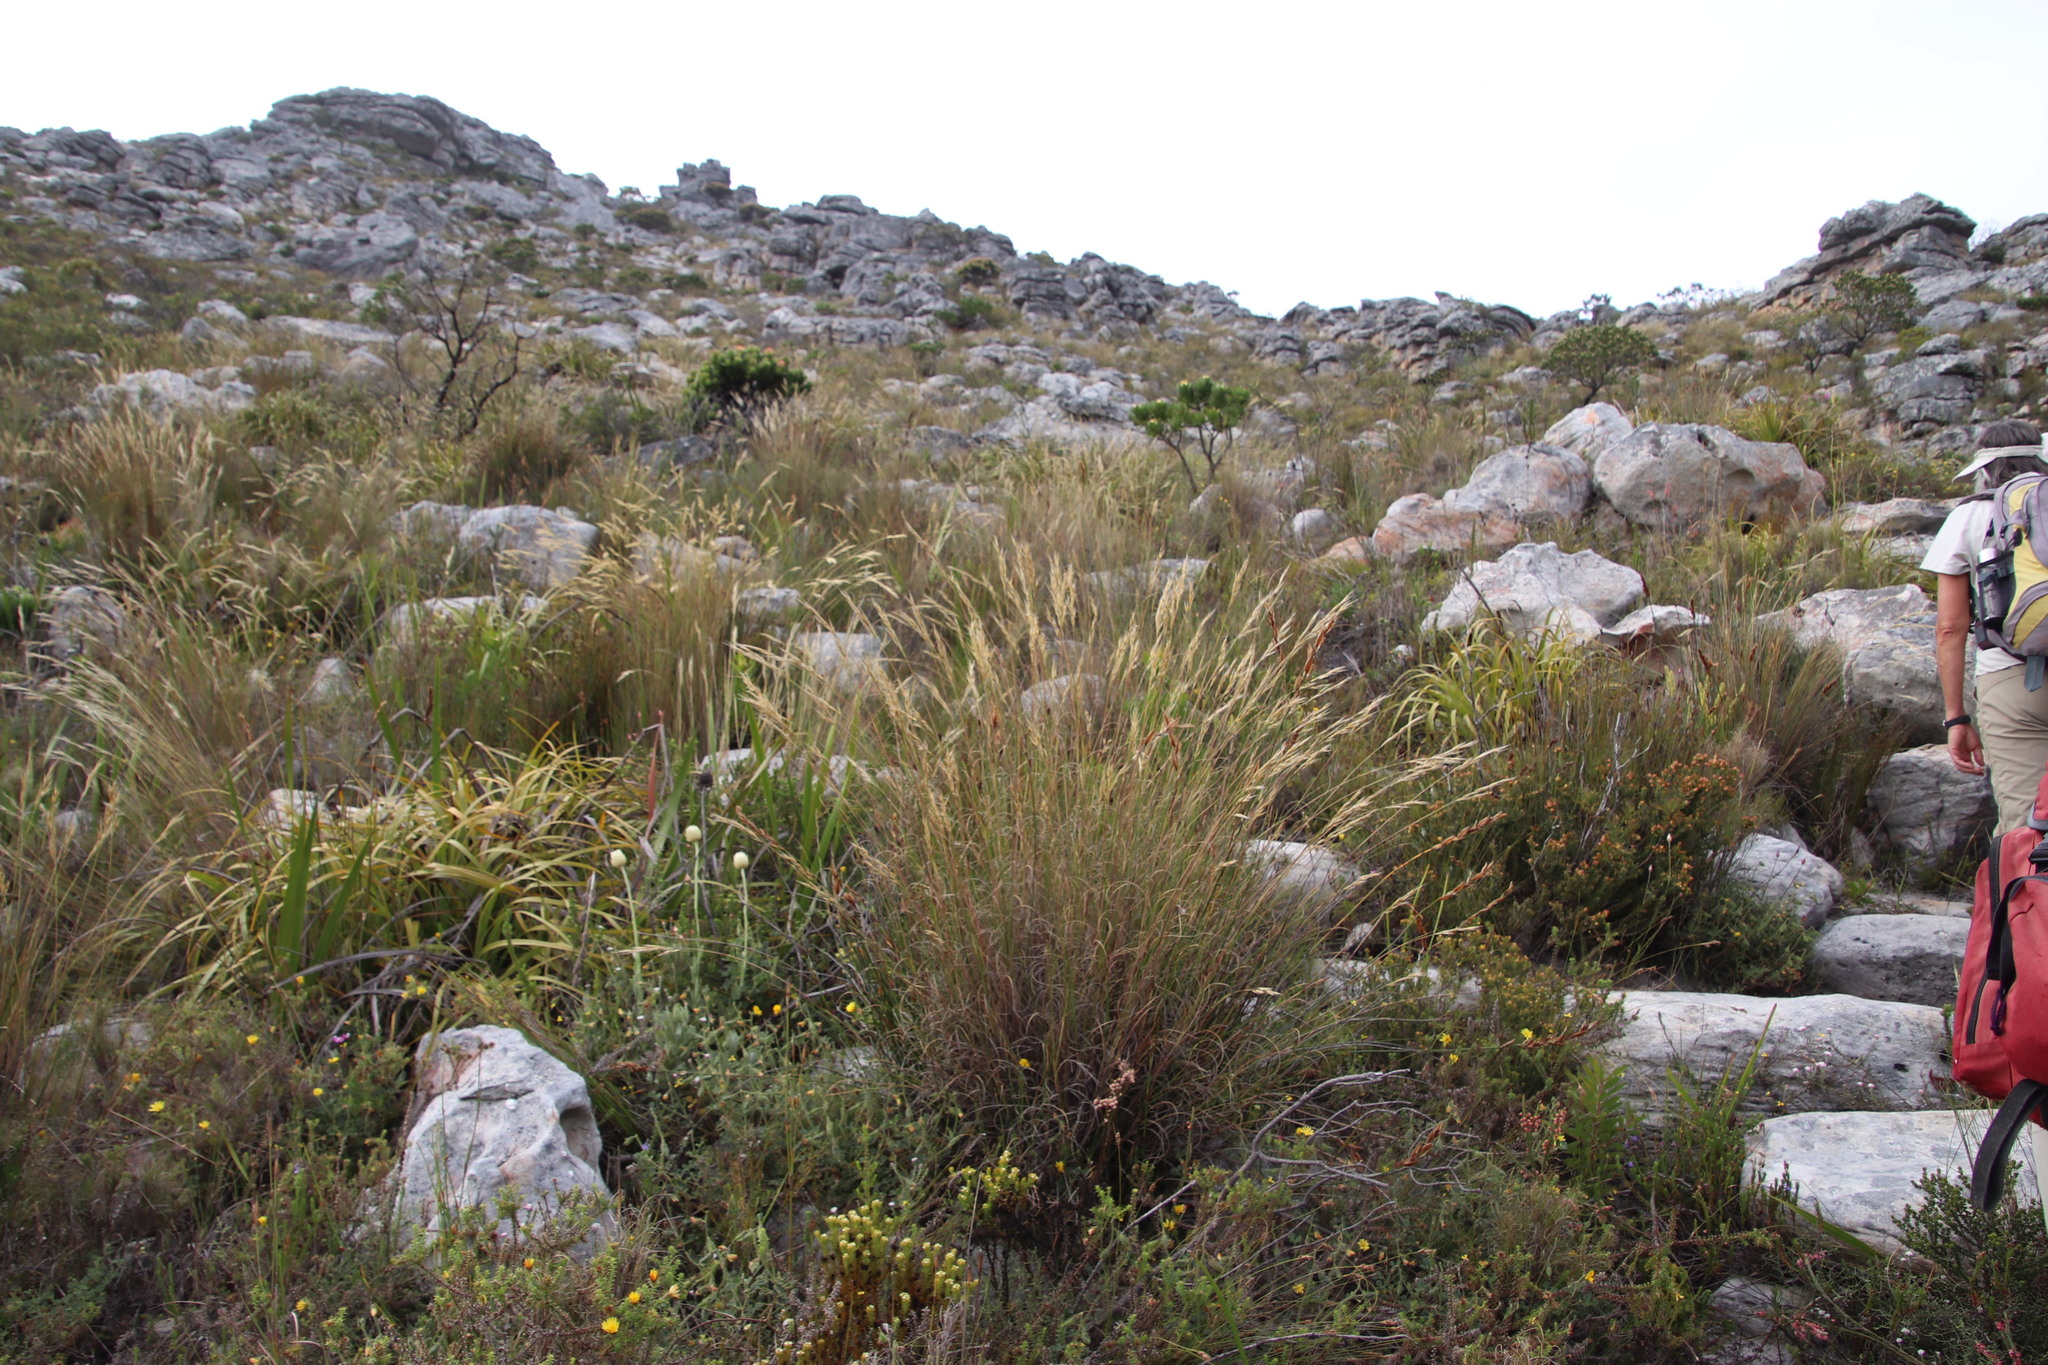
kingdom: Plantae
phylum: Tracheophyta
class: Liliopsida
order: Poales
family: Poaceae
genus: Pentameris
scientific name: Pentameris macrocalycina
